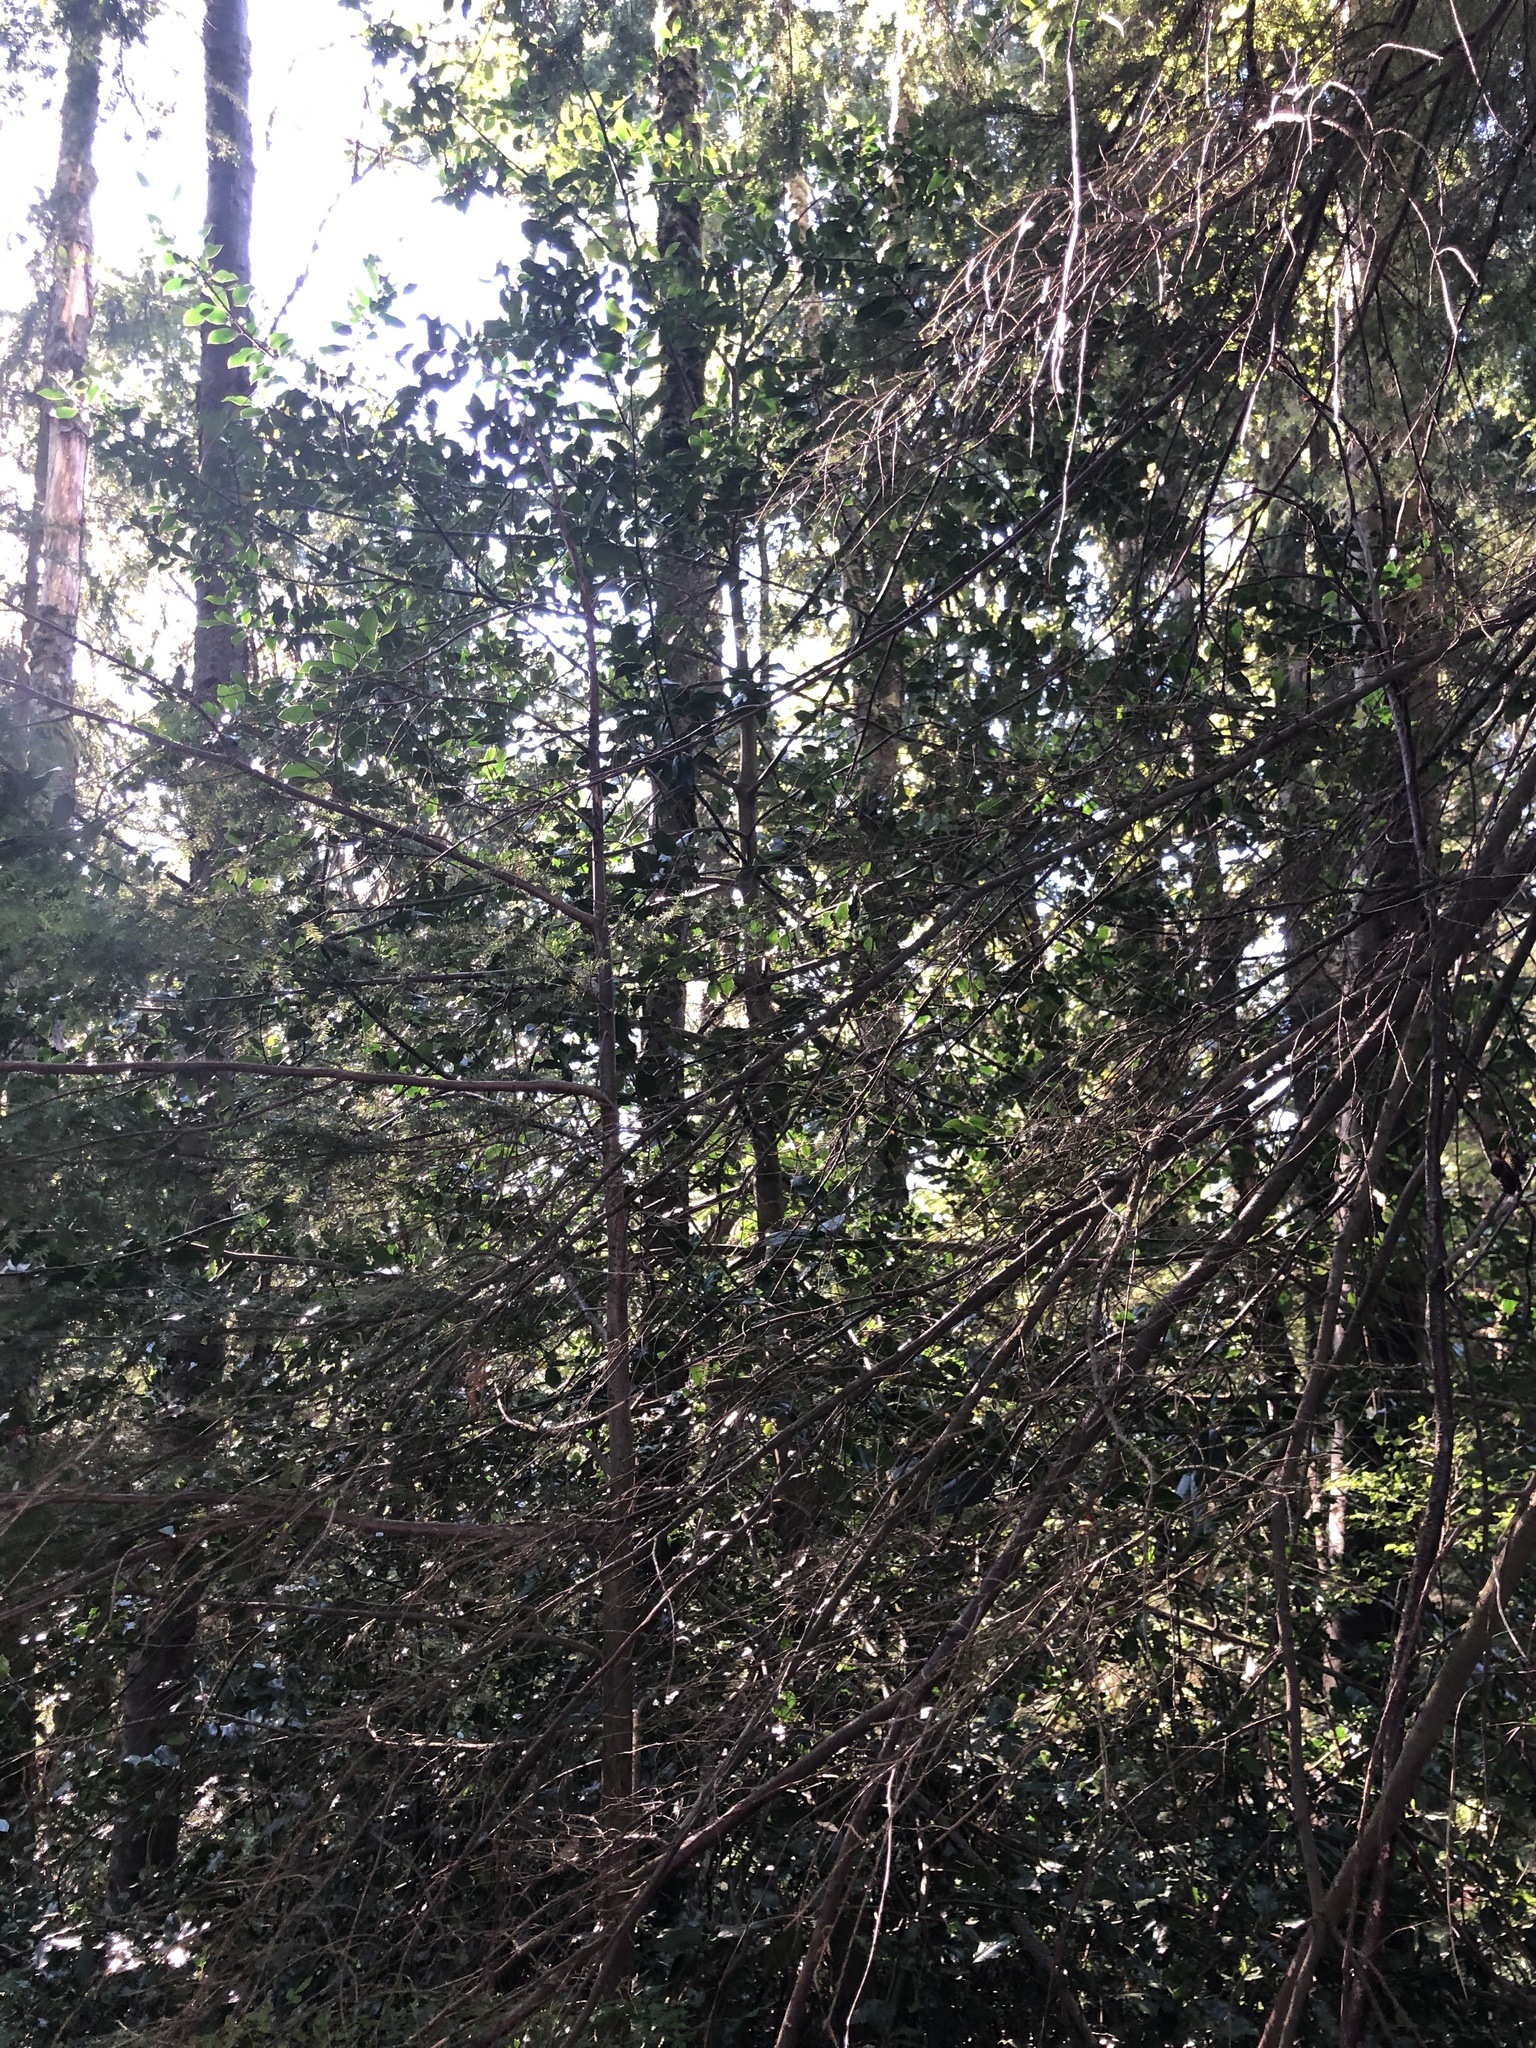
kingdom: Plantae
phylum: Tracheophyta
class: Magnoliopsida
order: Aquifoliales
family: Aquifoliaceae
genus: Ilex
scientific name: Ilex aquifolium
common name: English holly
